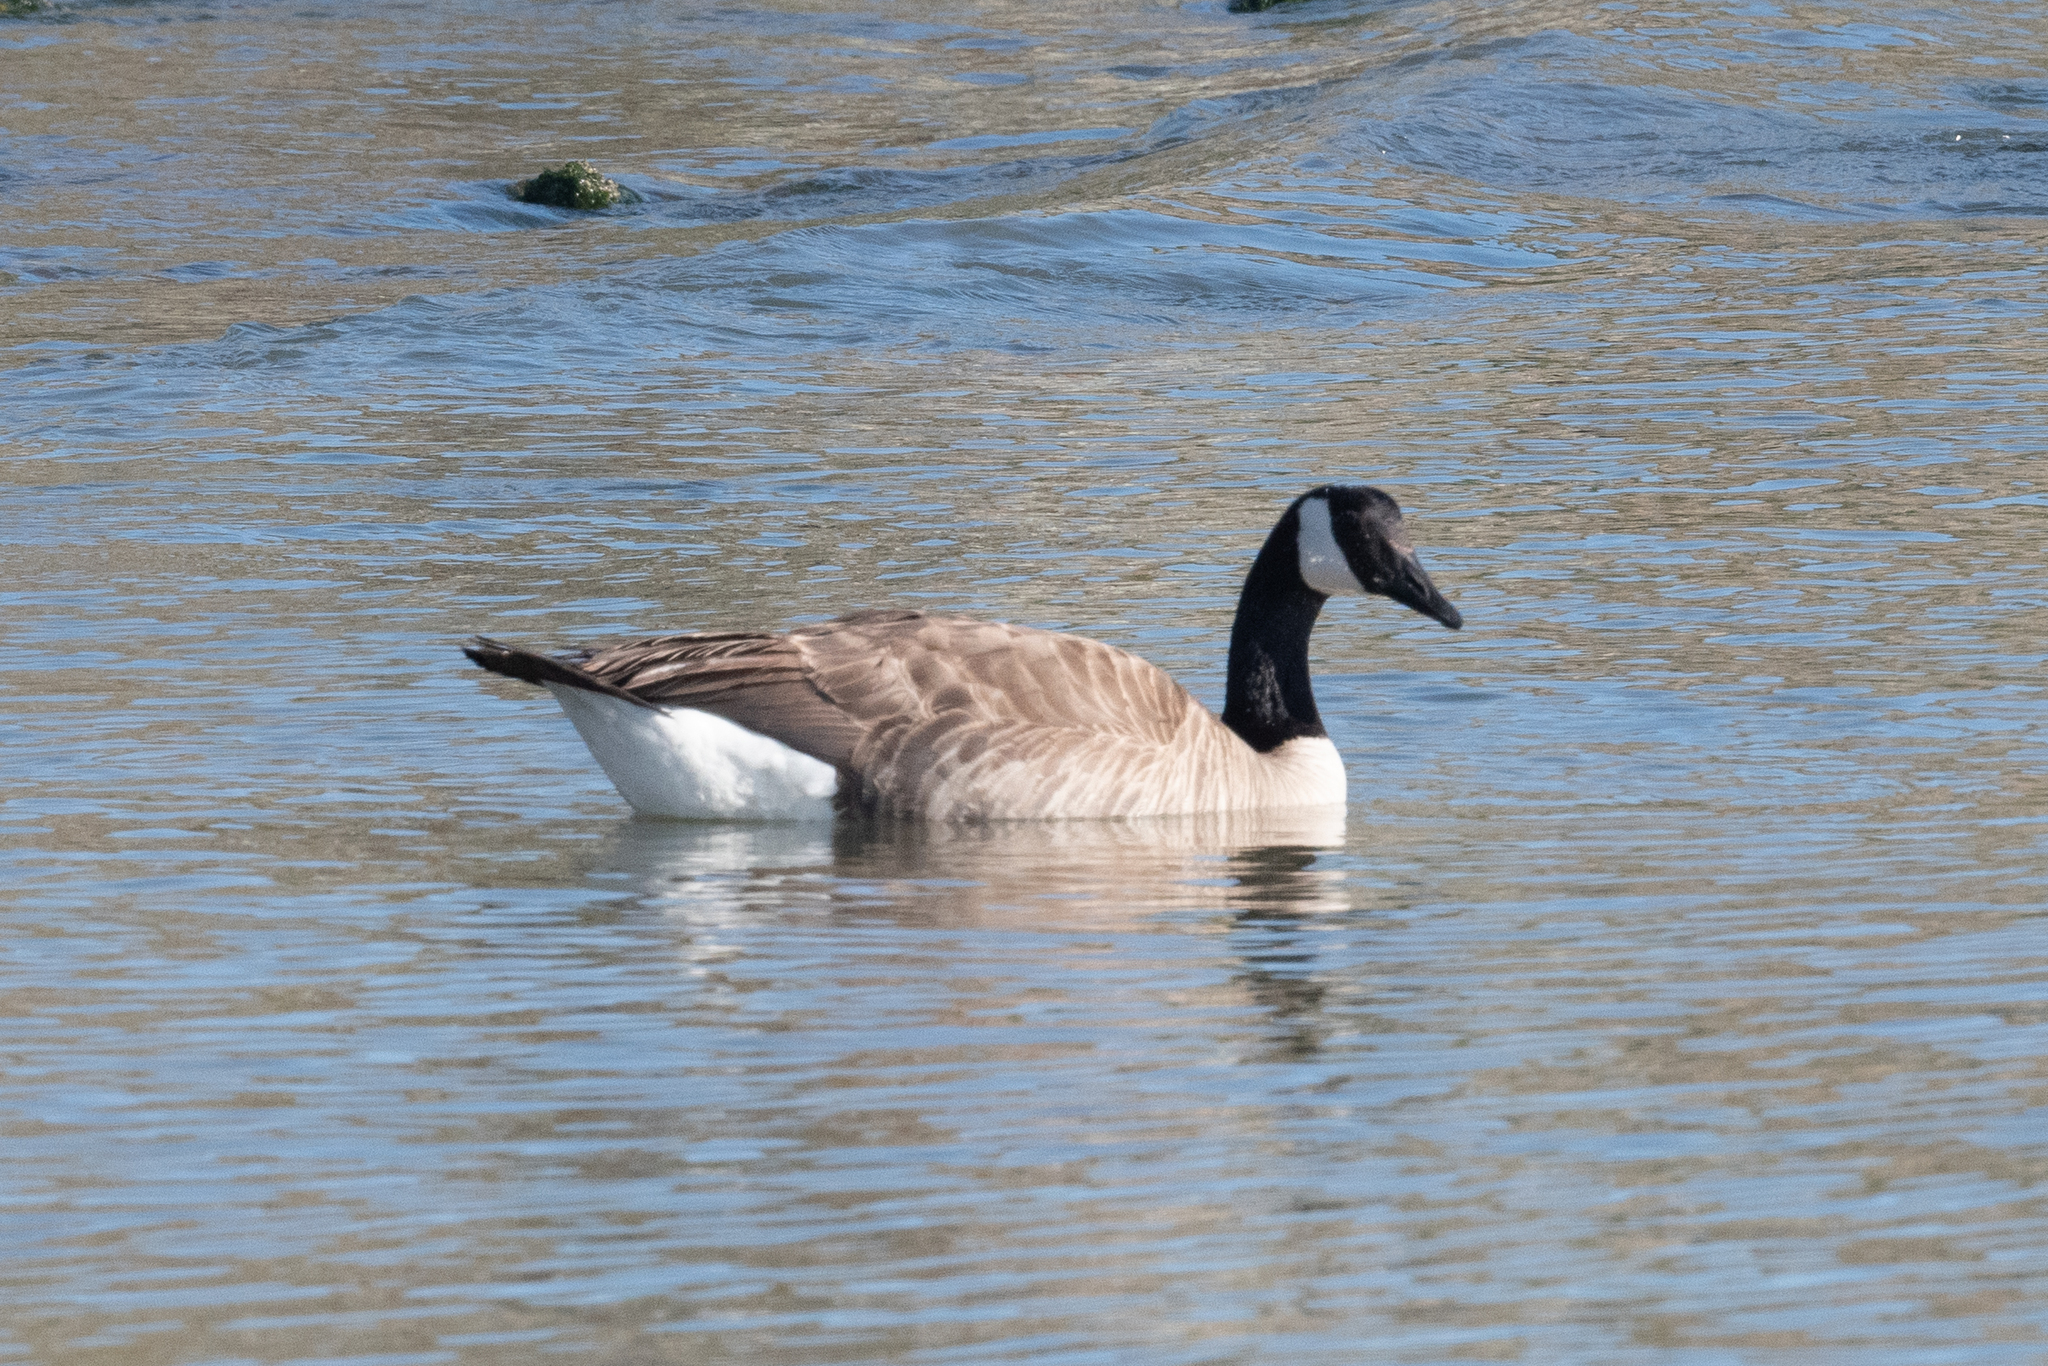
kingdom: Animalia
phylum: Chordata
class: Aves
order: Anseriformes
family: Anatidae
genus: Branta
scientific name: Branta canadensis
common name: Canada goose
